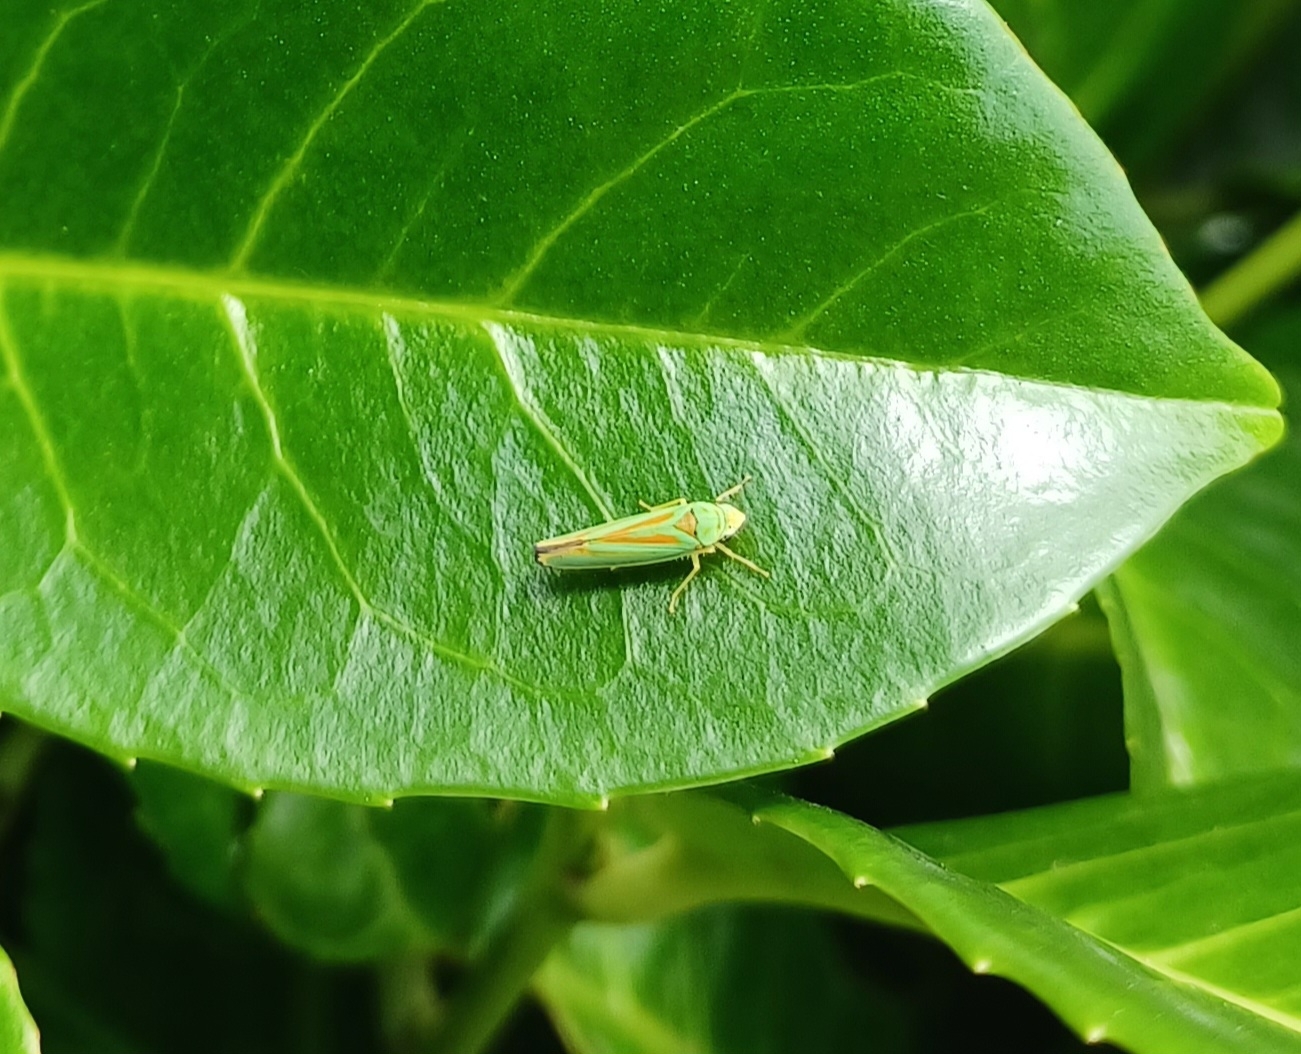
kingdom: Animalia
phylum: Arthropoda
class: Insecta
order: Hemiptera
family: Cicadellidae
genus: Graphocephala
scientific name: Graphocephala fennahi
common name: Rhododendron leafhopper
